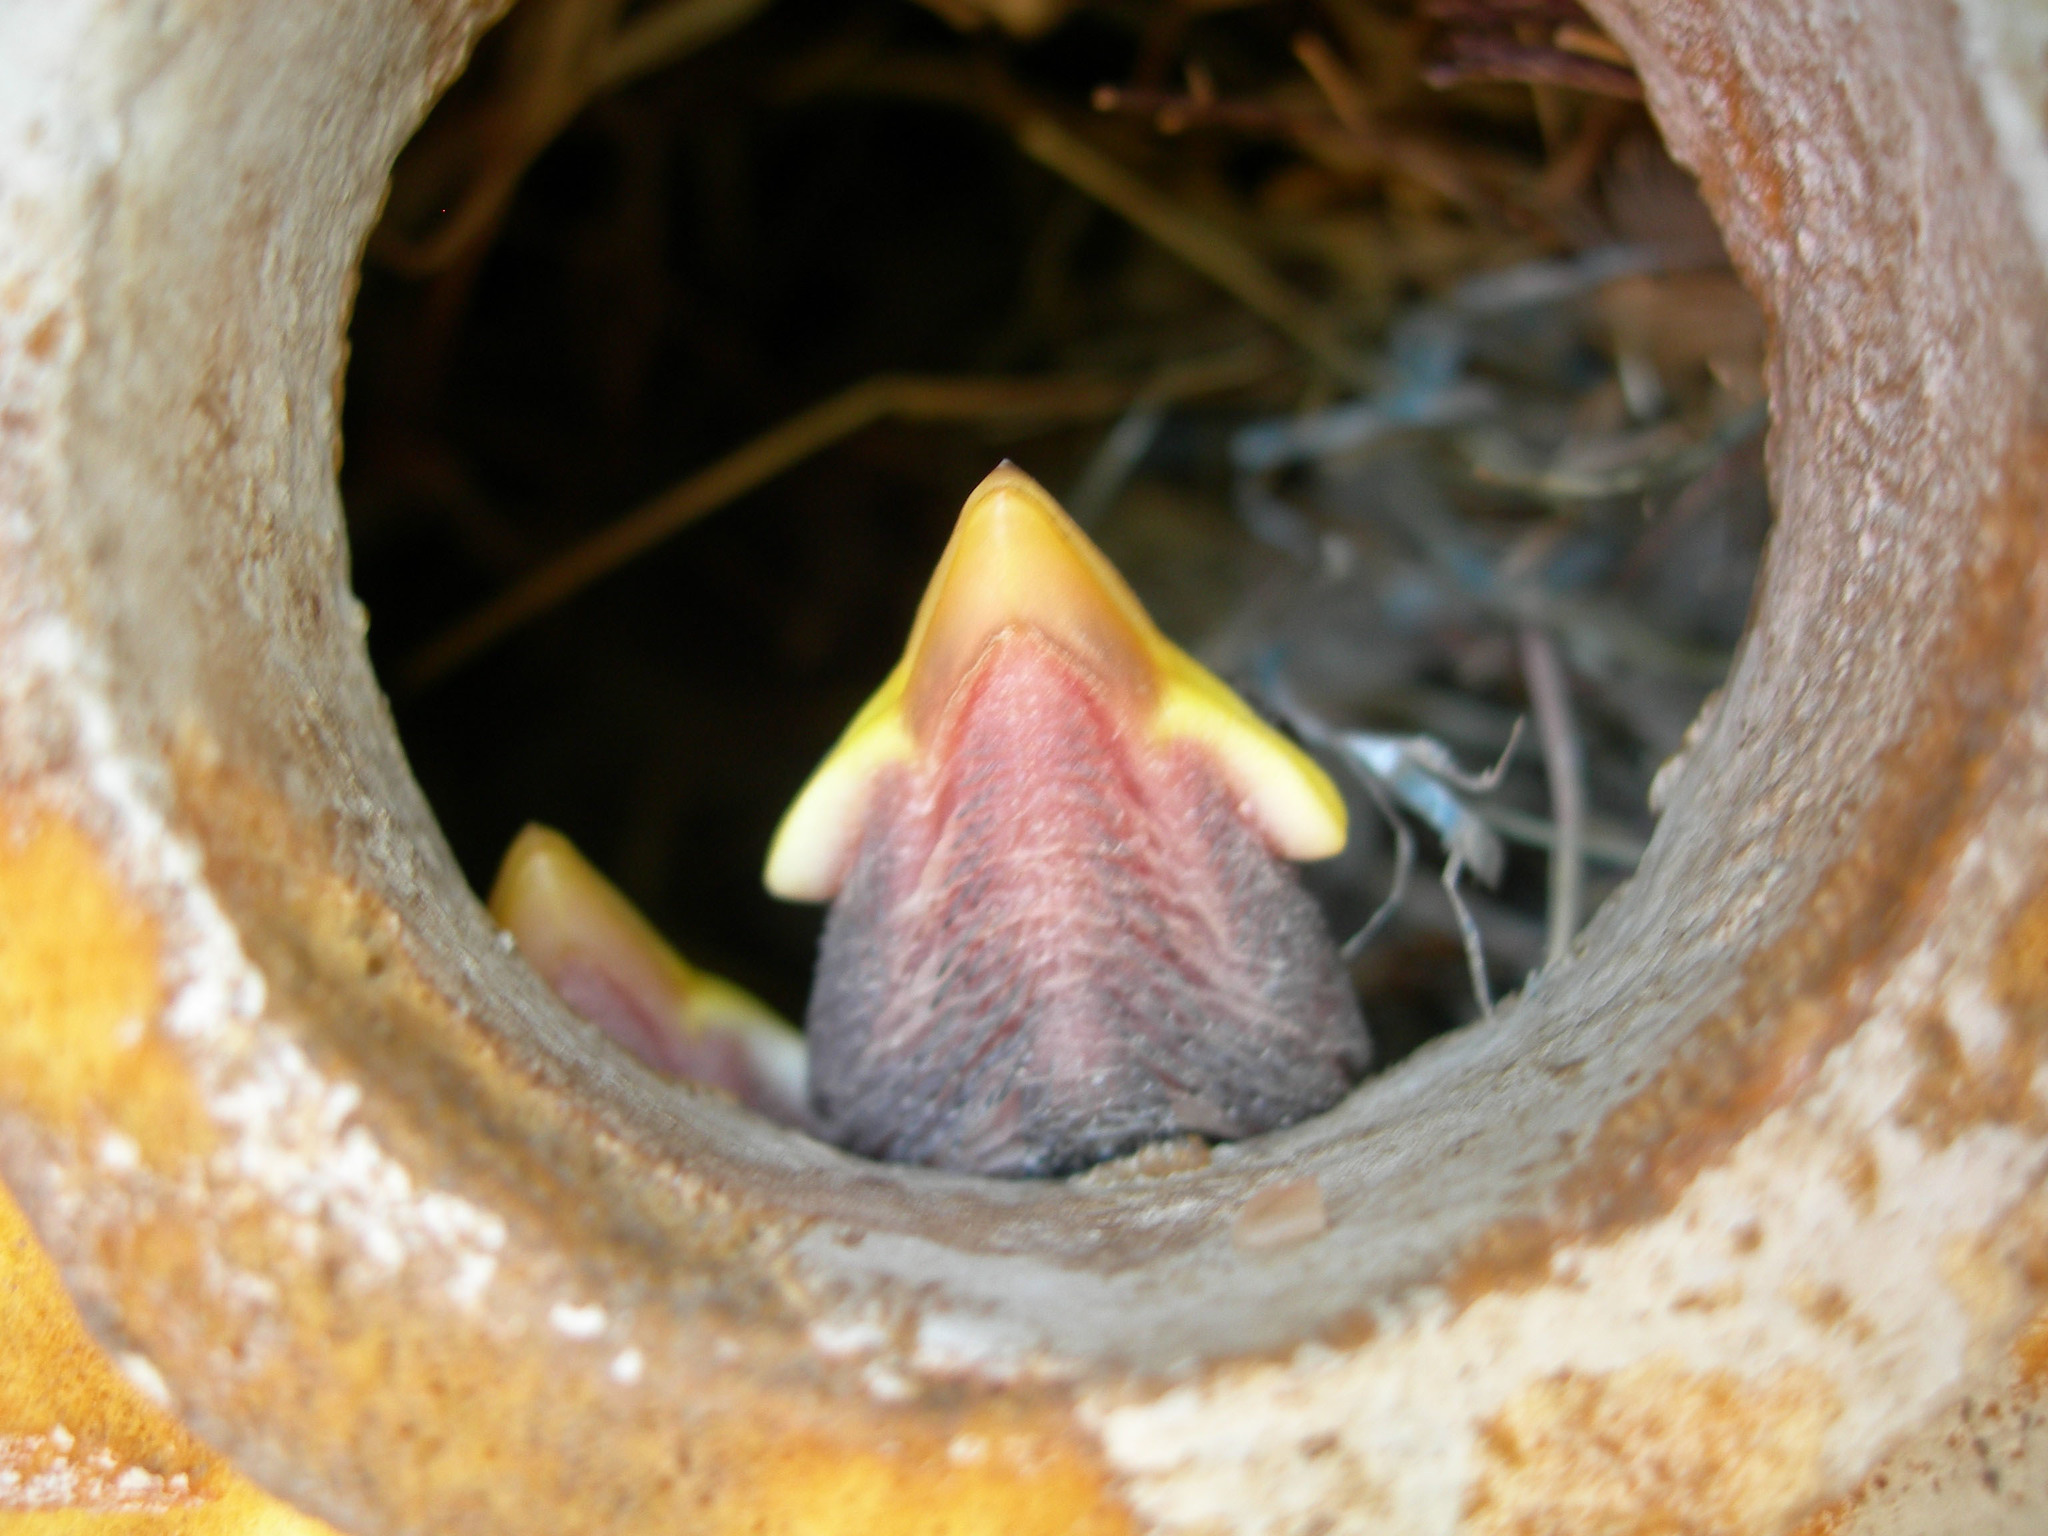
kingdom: Animalia
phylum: Chordata
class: Aves
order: Passeriformes
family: Passeridae
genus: Passer
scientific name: Passer domesticus
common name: House sparrow
